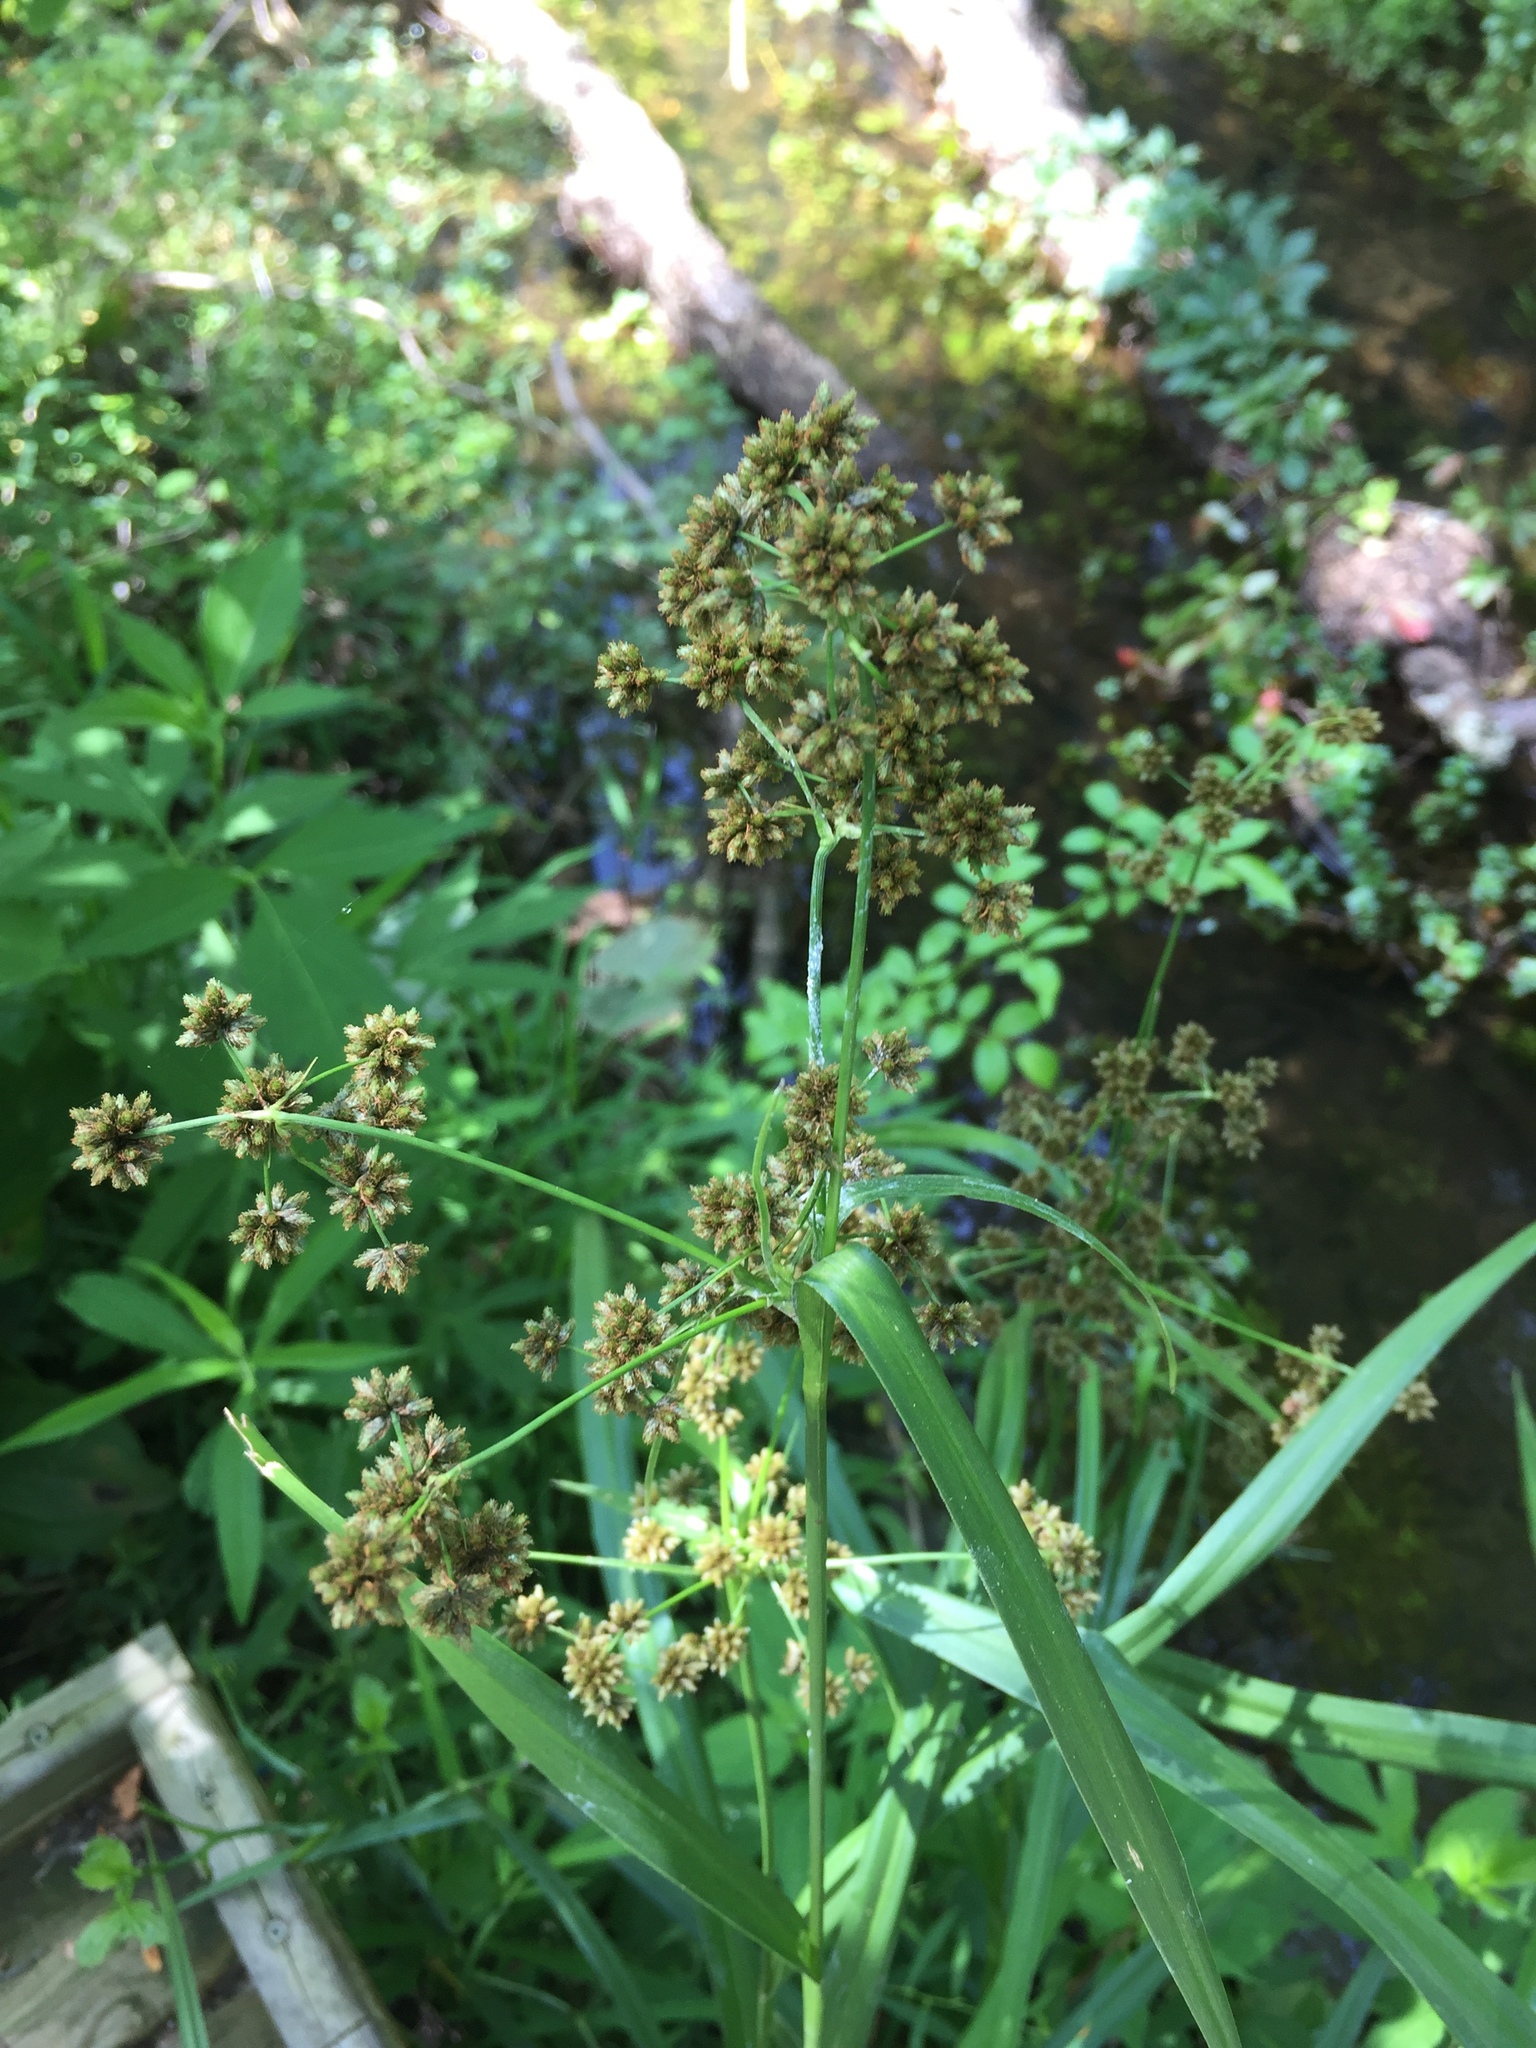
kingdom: Plantae
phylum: Tracheophyta
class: Liliopsida
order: Poales
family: Cyperaceae
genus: Scirpus
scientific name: Scirpus atrovirens
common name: Black bulrush
